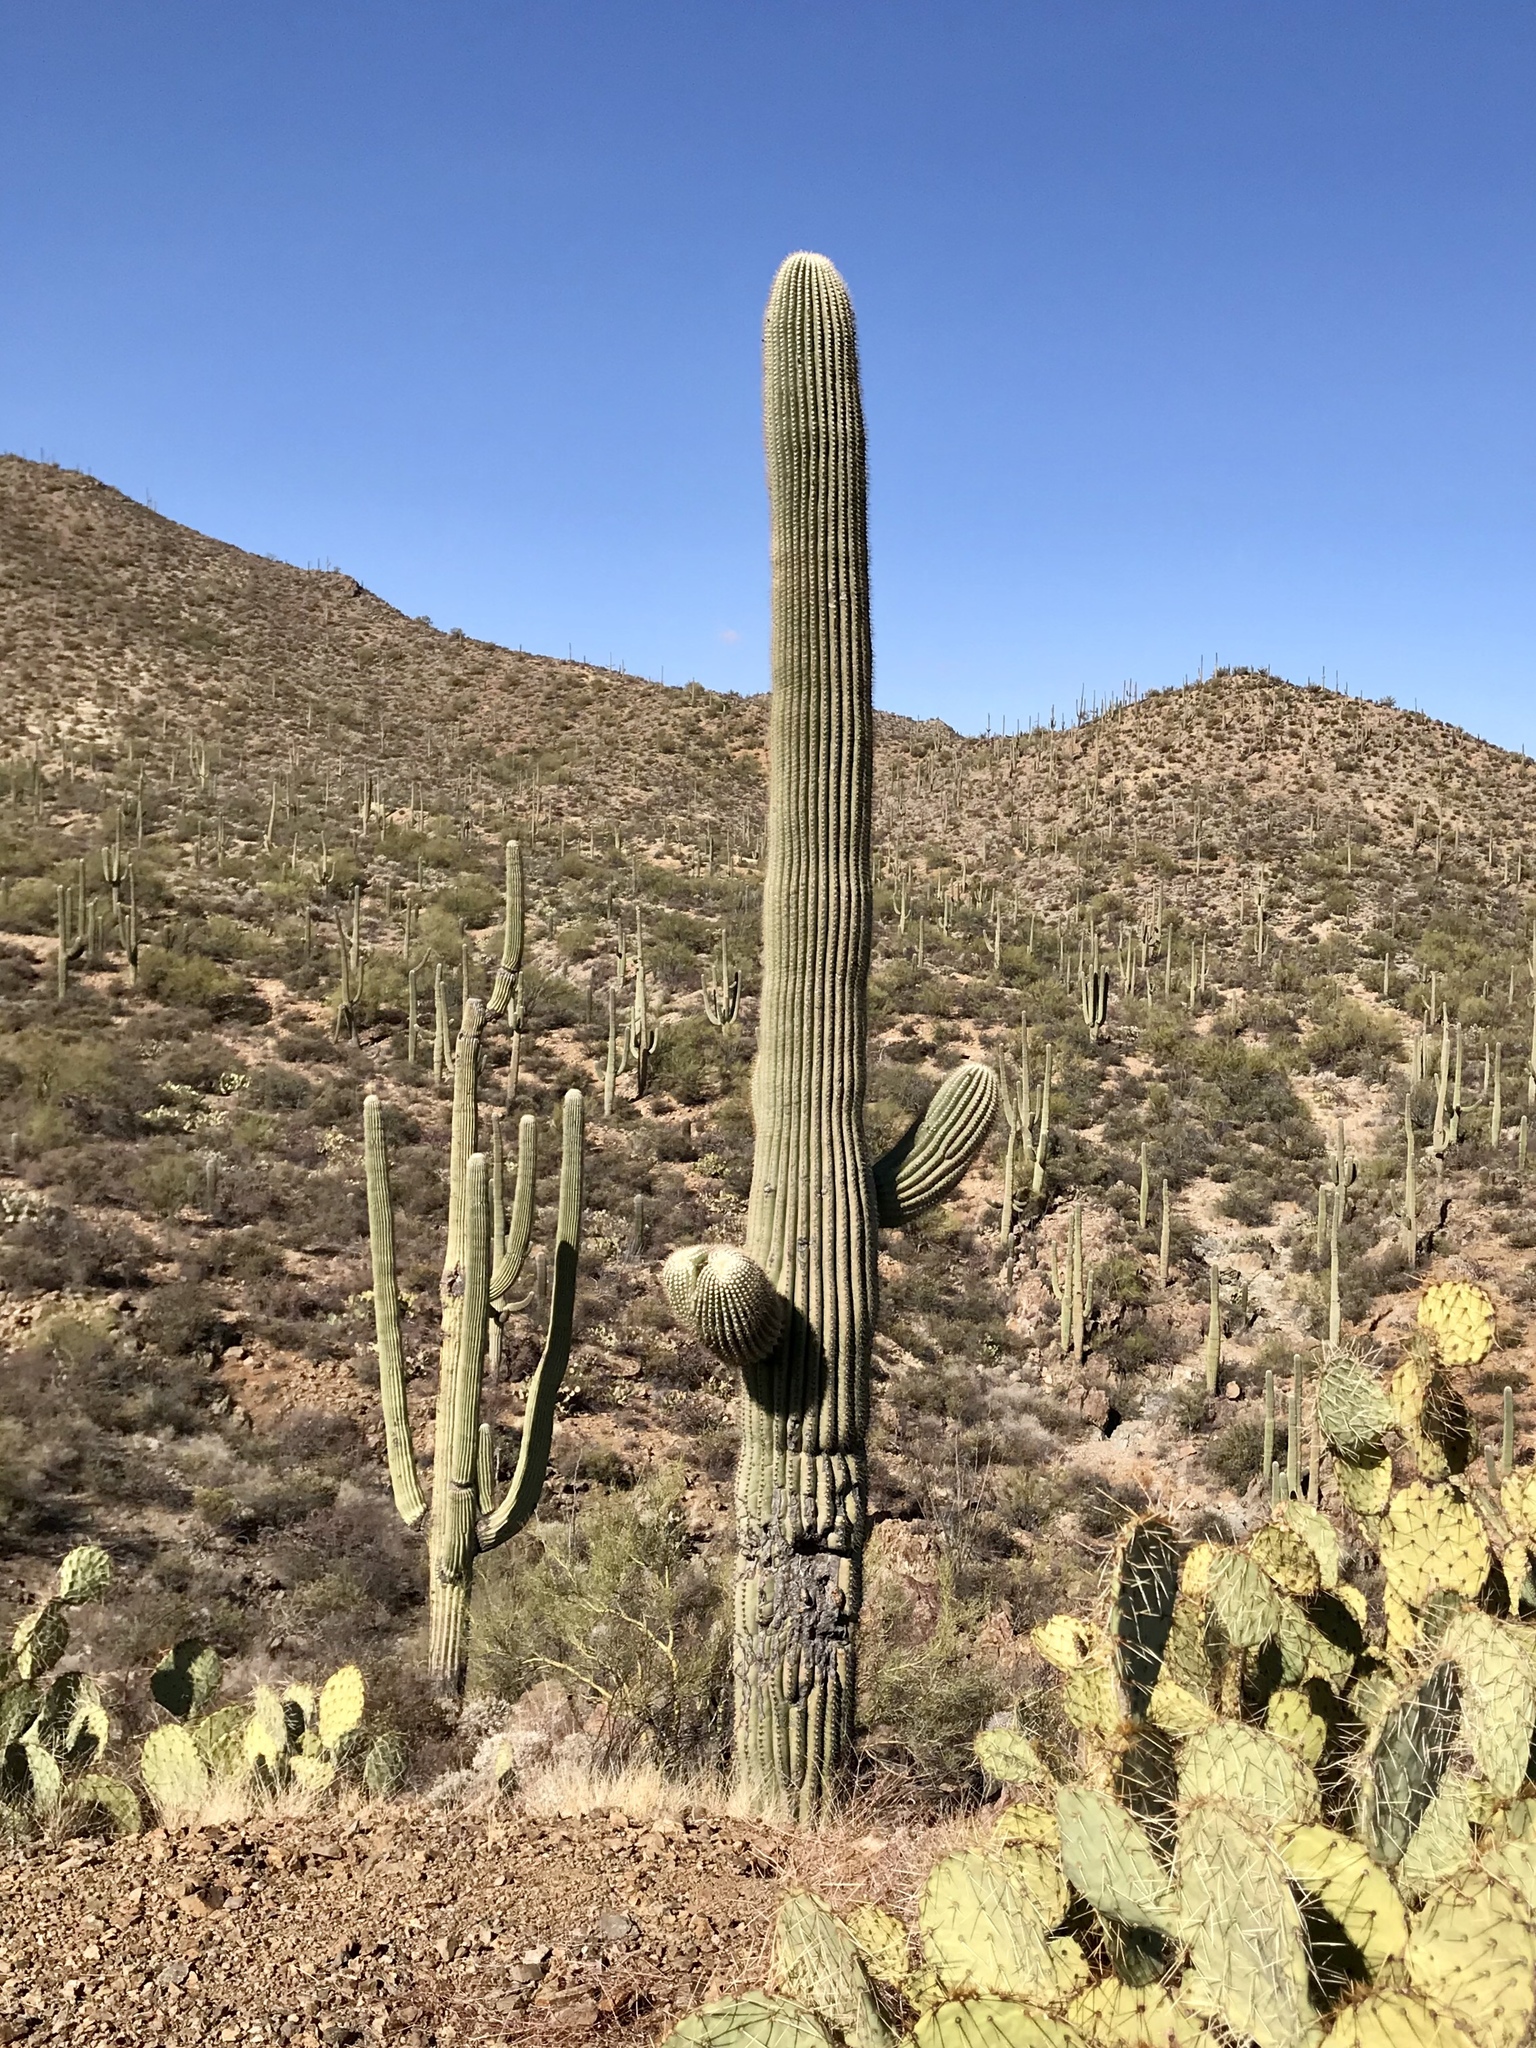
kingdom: Plantae
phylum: Tracheophyta
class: Magnoliopsida
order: Caryophyllales
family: Cactaceae
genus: Carnegiea
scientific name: Carnegiea gigantea
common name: Saguaro
